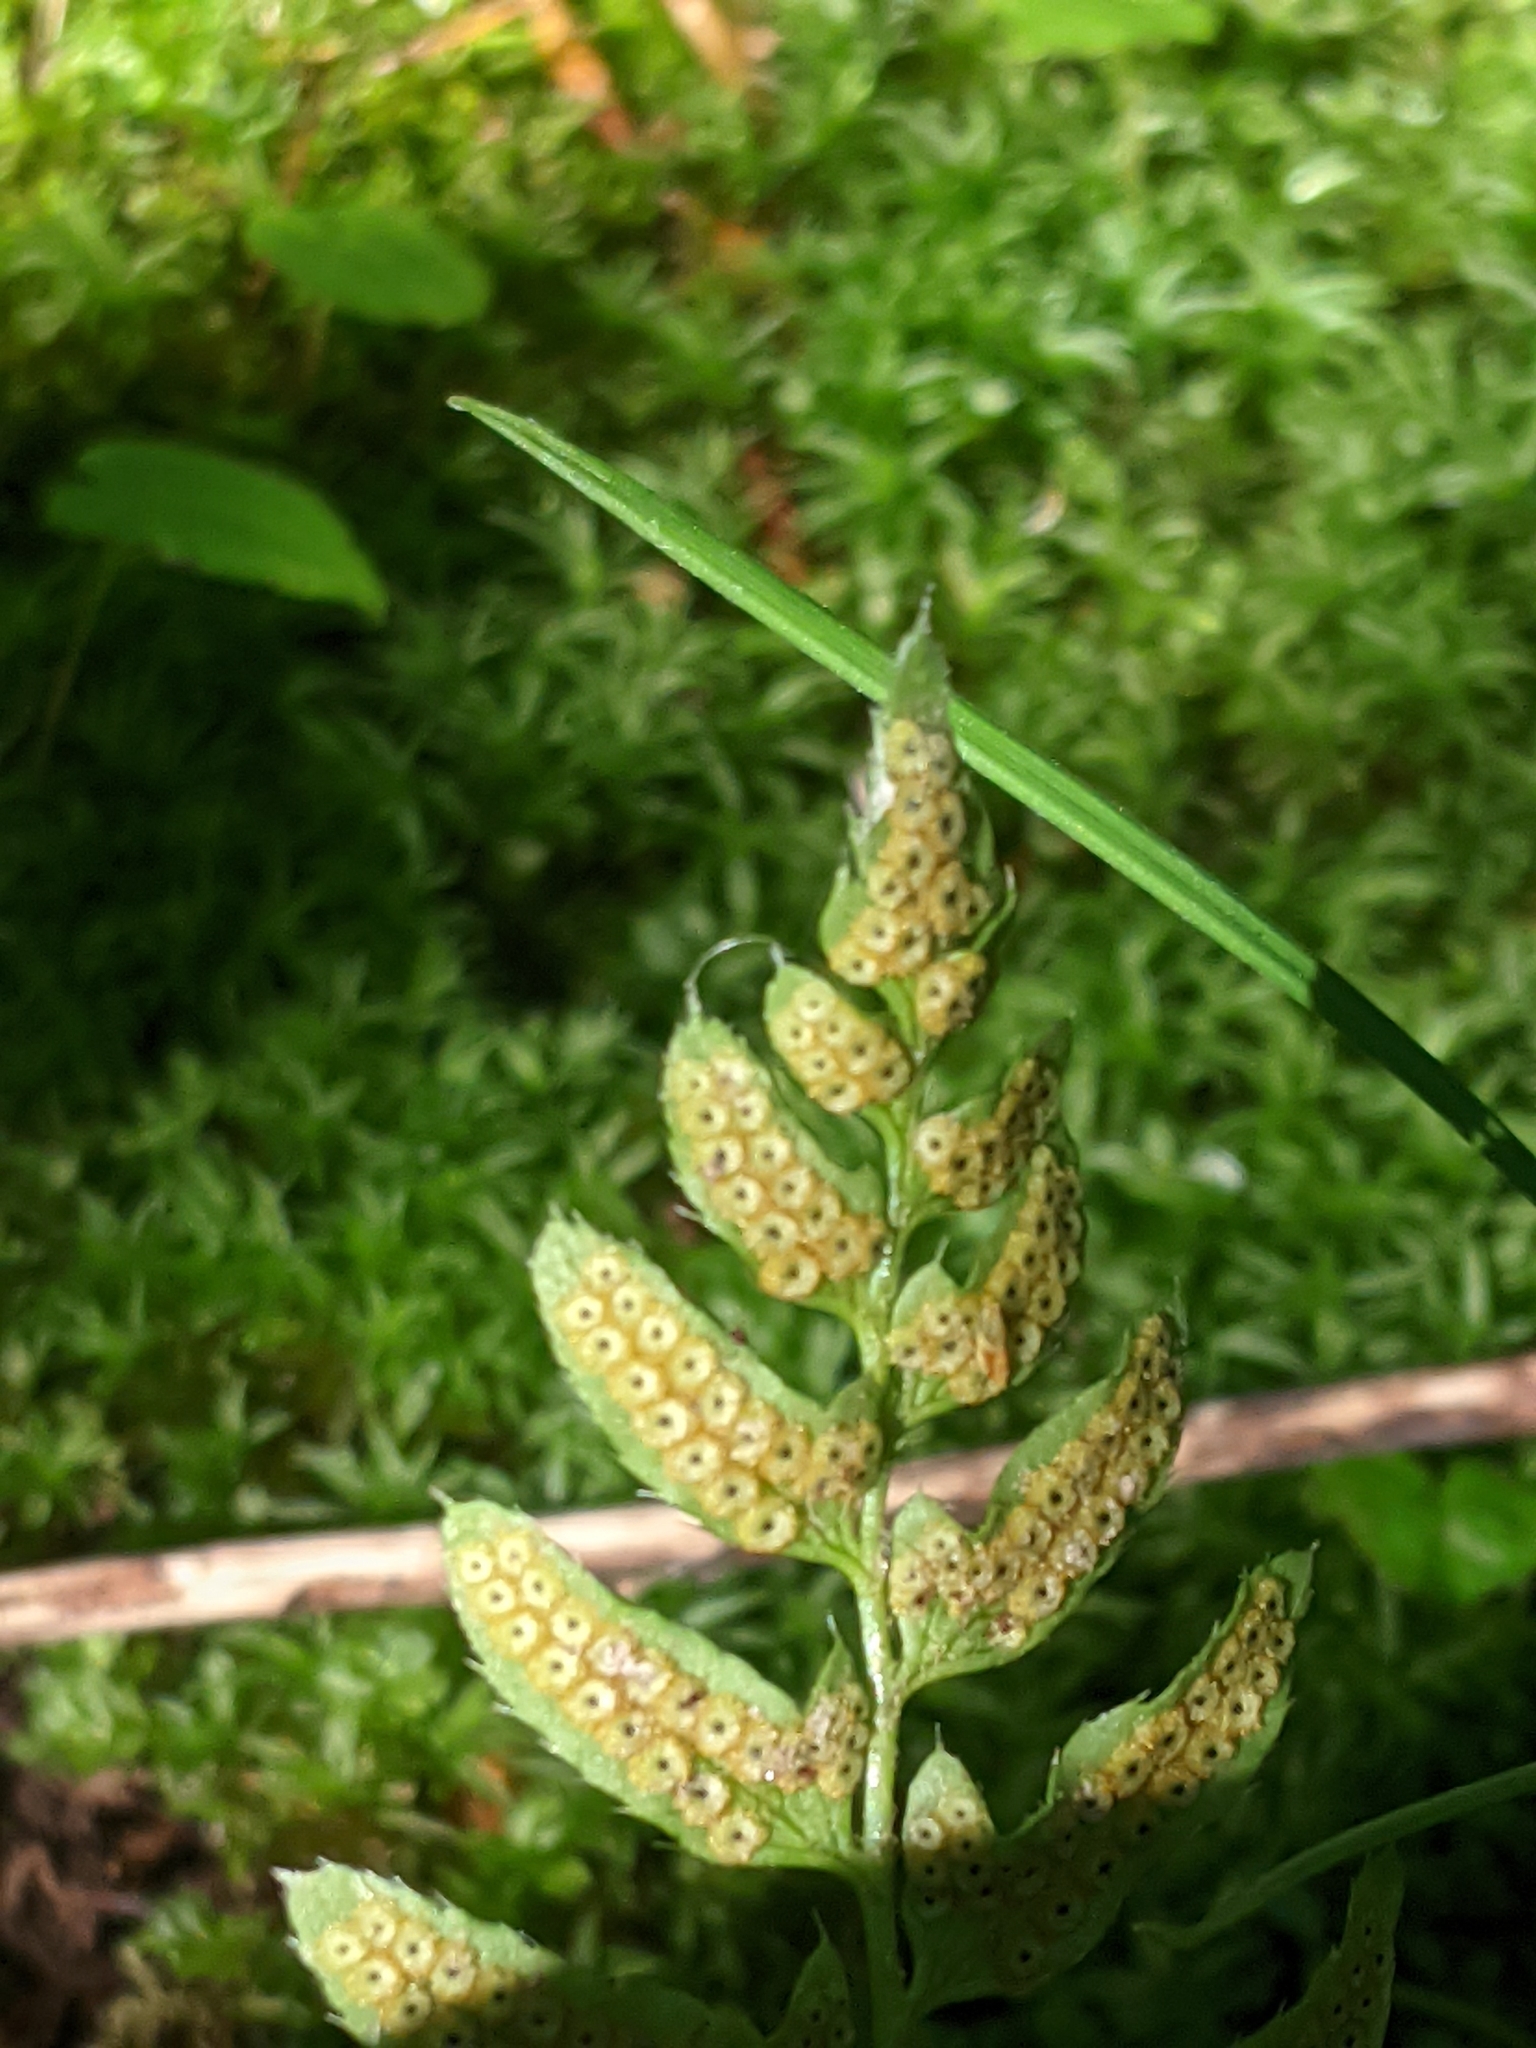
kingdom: Plantae
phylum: Tracheophyta
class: Polypodiopsida
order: Polypodiales
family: Dryopteridaceae
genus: Polystichum
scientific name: Polystichum acrostichoides
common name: Christmas fern
